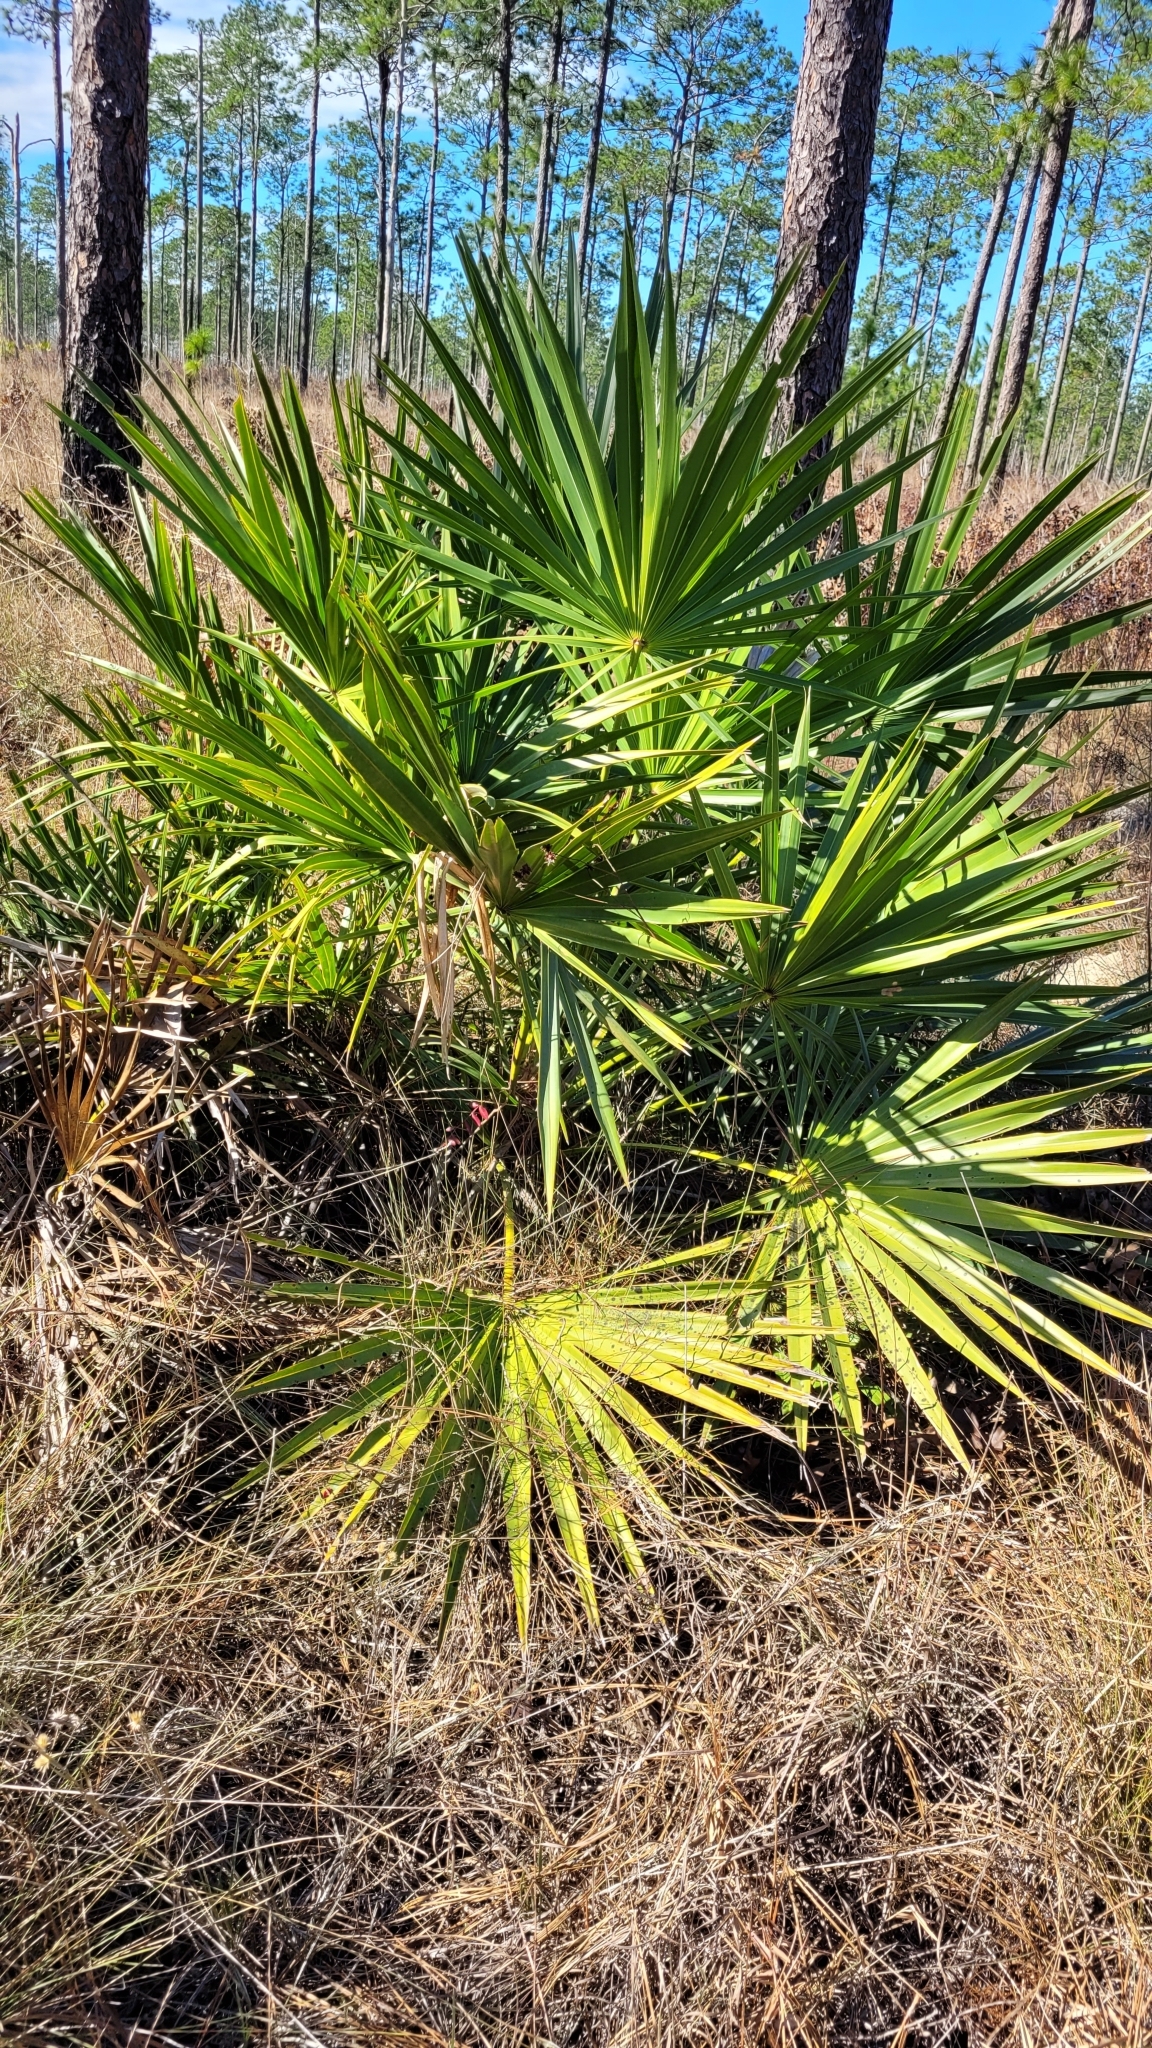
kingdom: Plantae
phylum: Tracheophyta
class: Liliopsida
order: Arecales
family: Arecaceae
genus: Serenoa
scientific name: Serenoa repens
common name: Saw-palmetto
